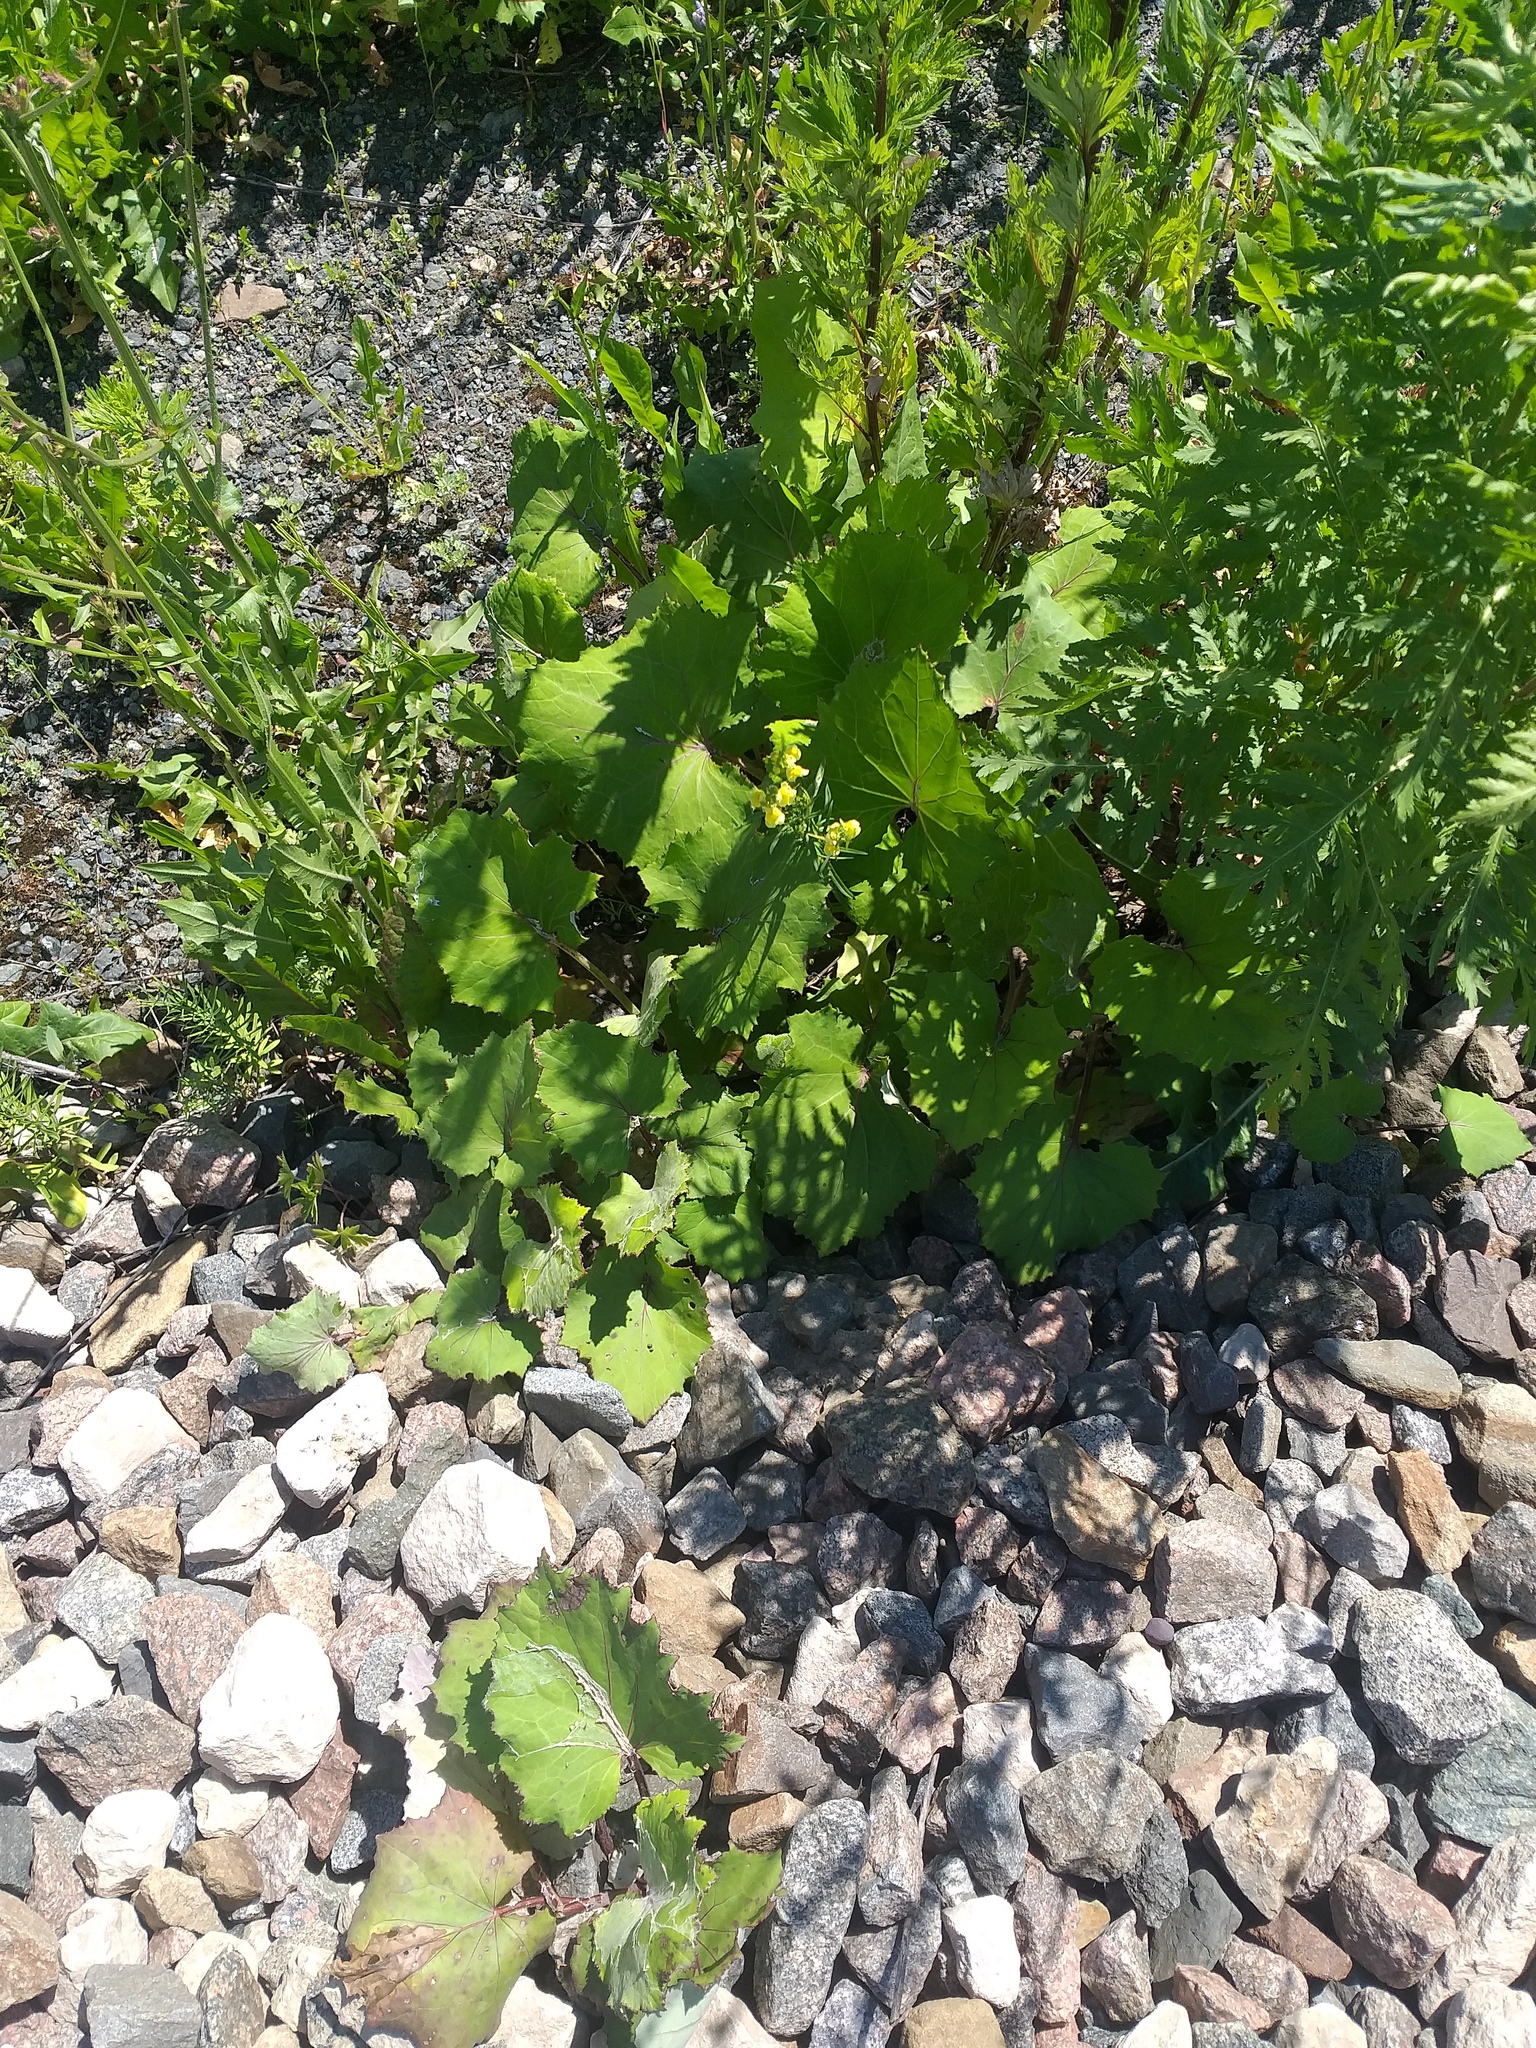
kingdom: Plantae
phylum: Tracheophyta
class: Magnoliopsida
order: Asterales
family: Asteraceae
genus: Tussilago
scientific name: Tussilago farfara
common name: Coltsfoot
